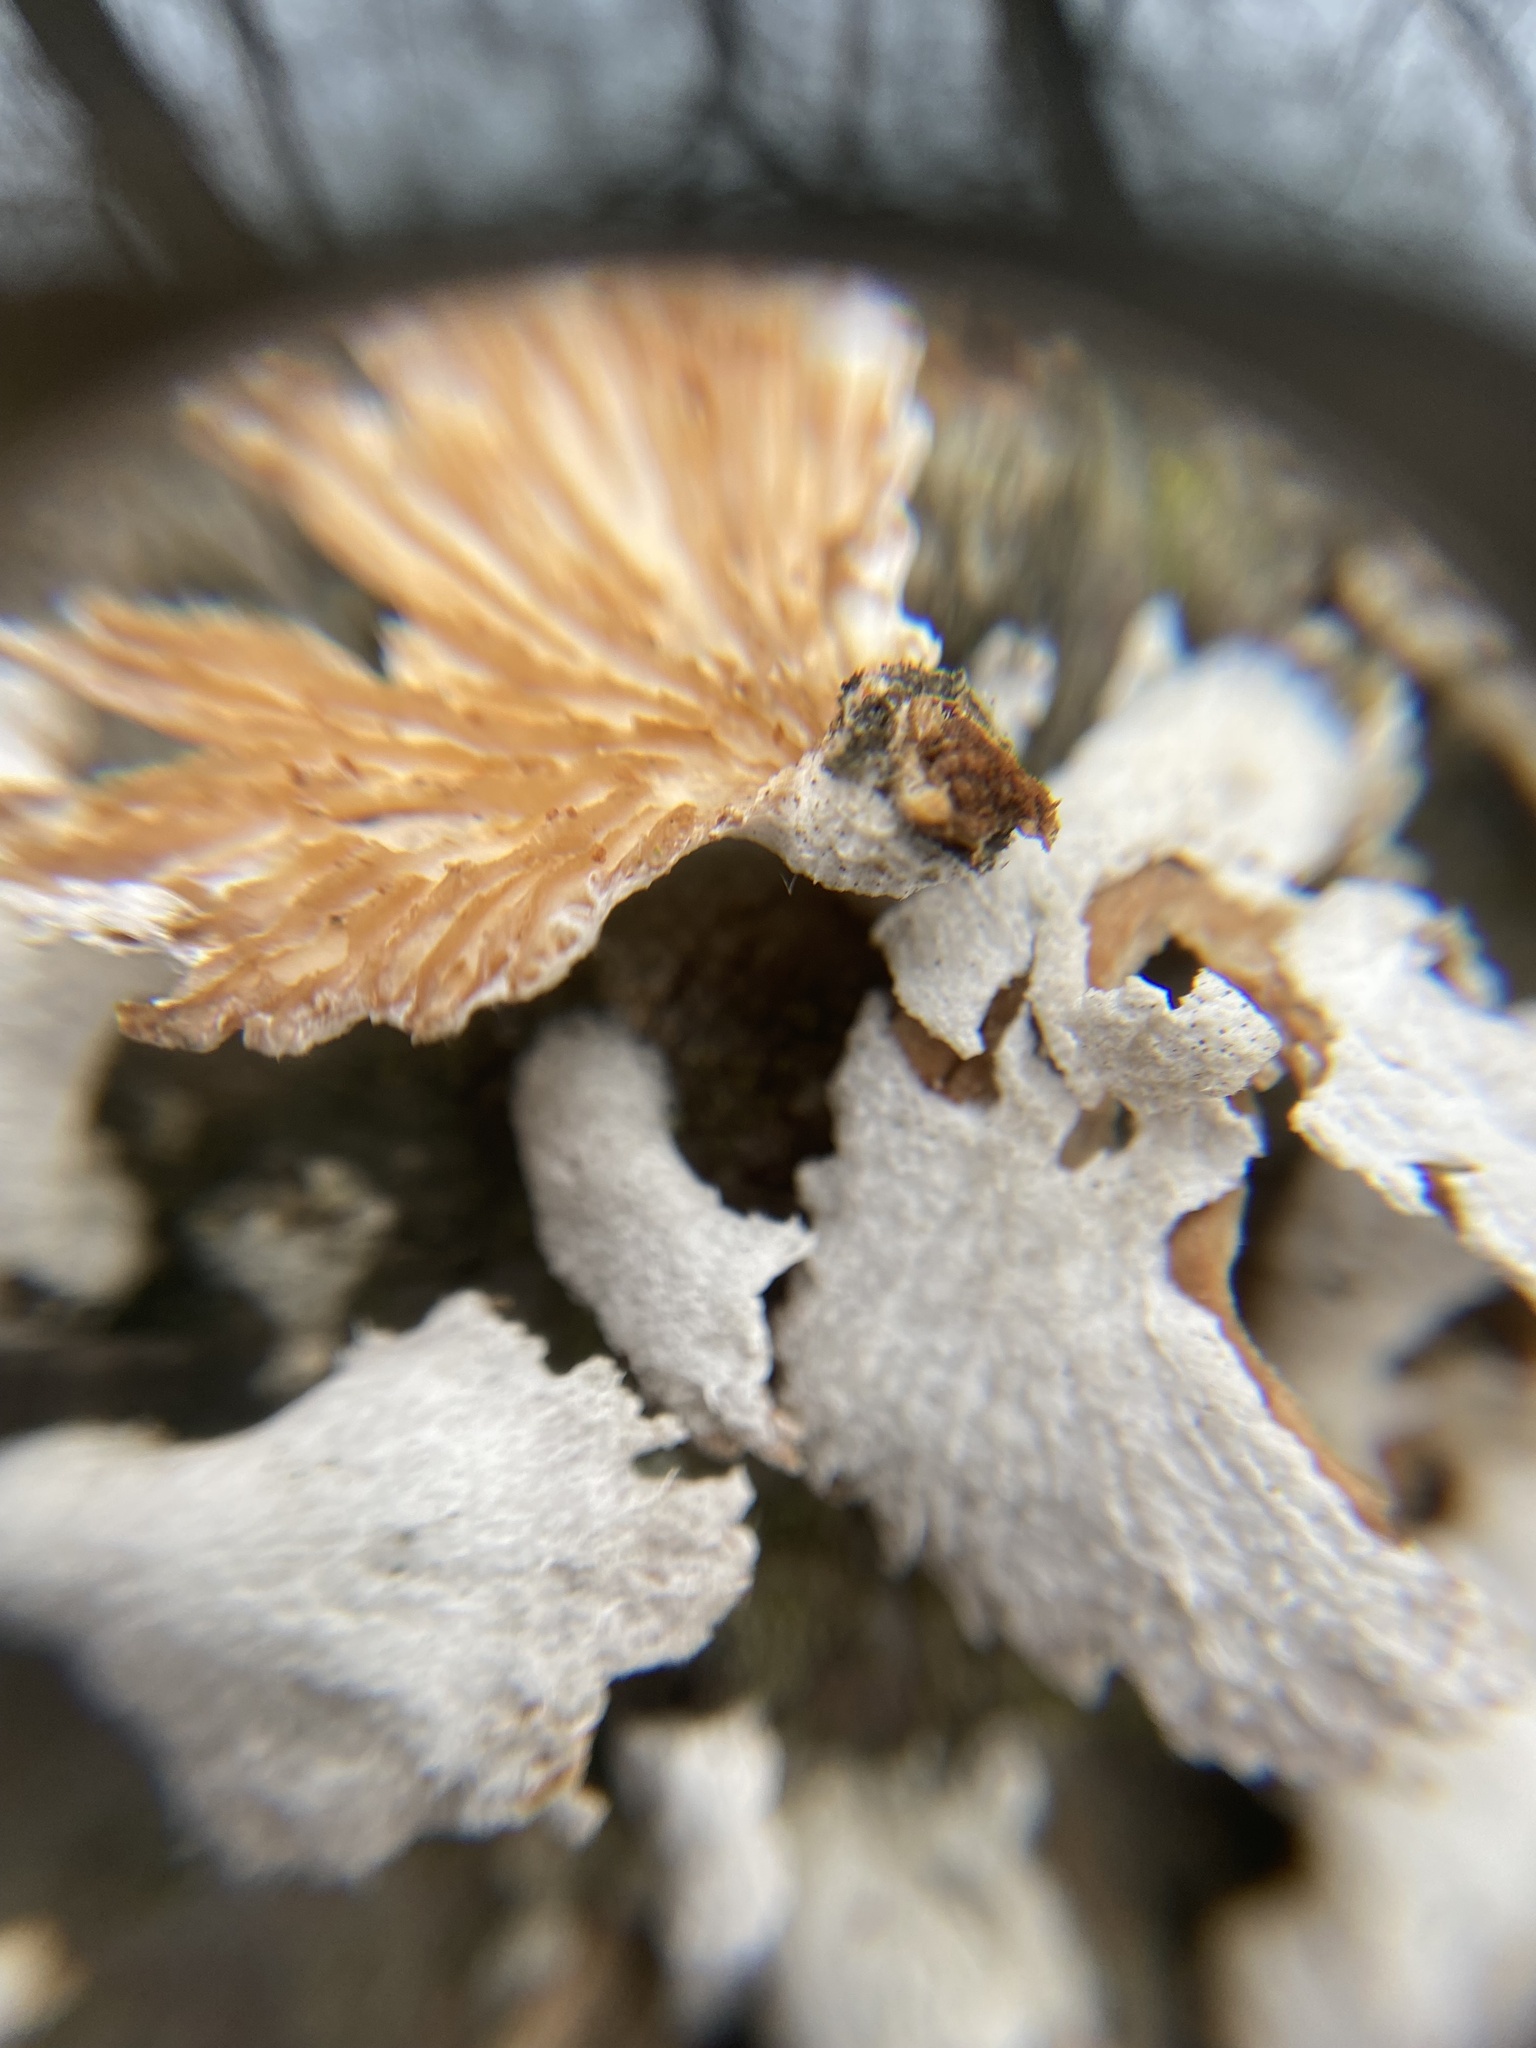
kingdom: Fungi
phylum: Basidiomycota
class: Agaricomycetes
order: Agaricales
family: Schizophyllaceae
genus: Schizophyllum
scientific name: Schizophyllum commune
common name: Common porecrust
